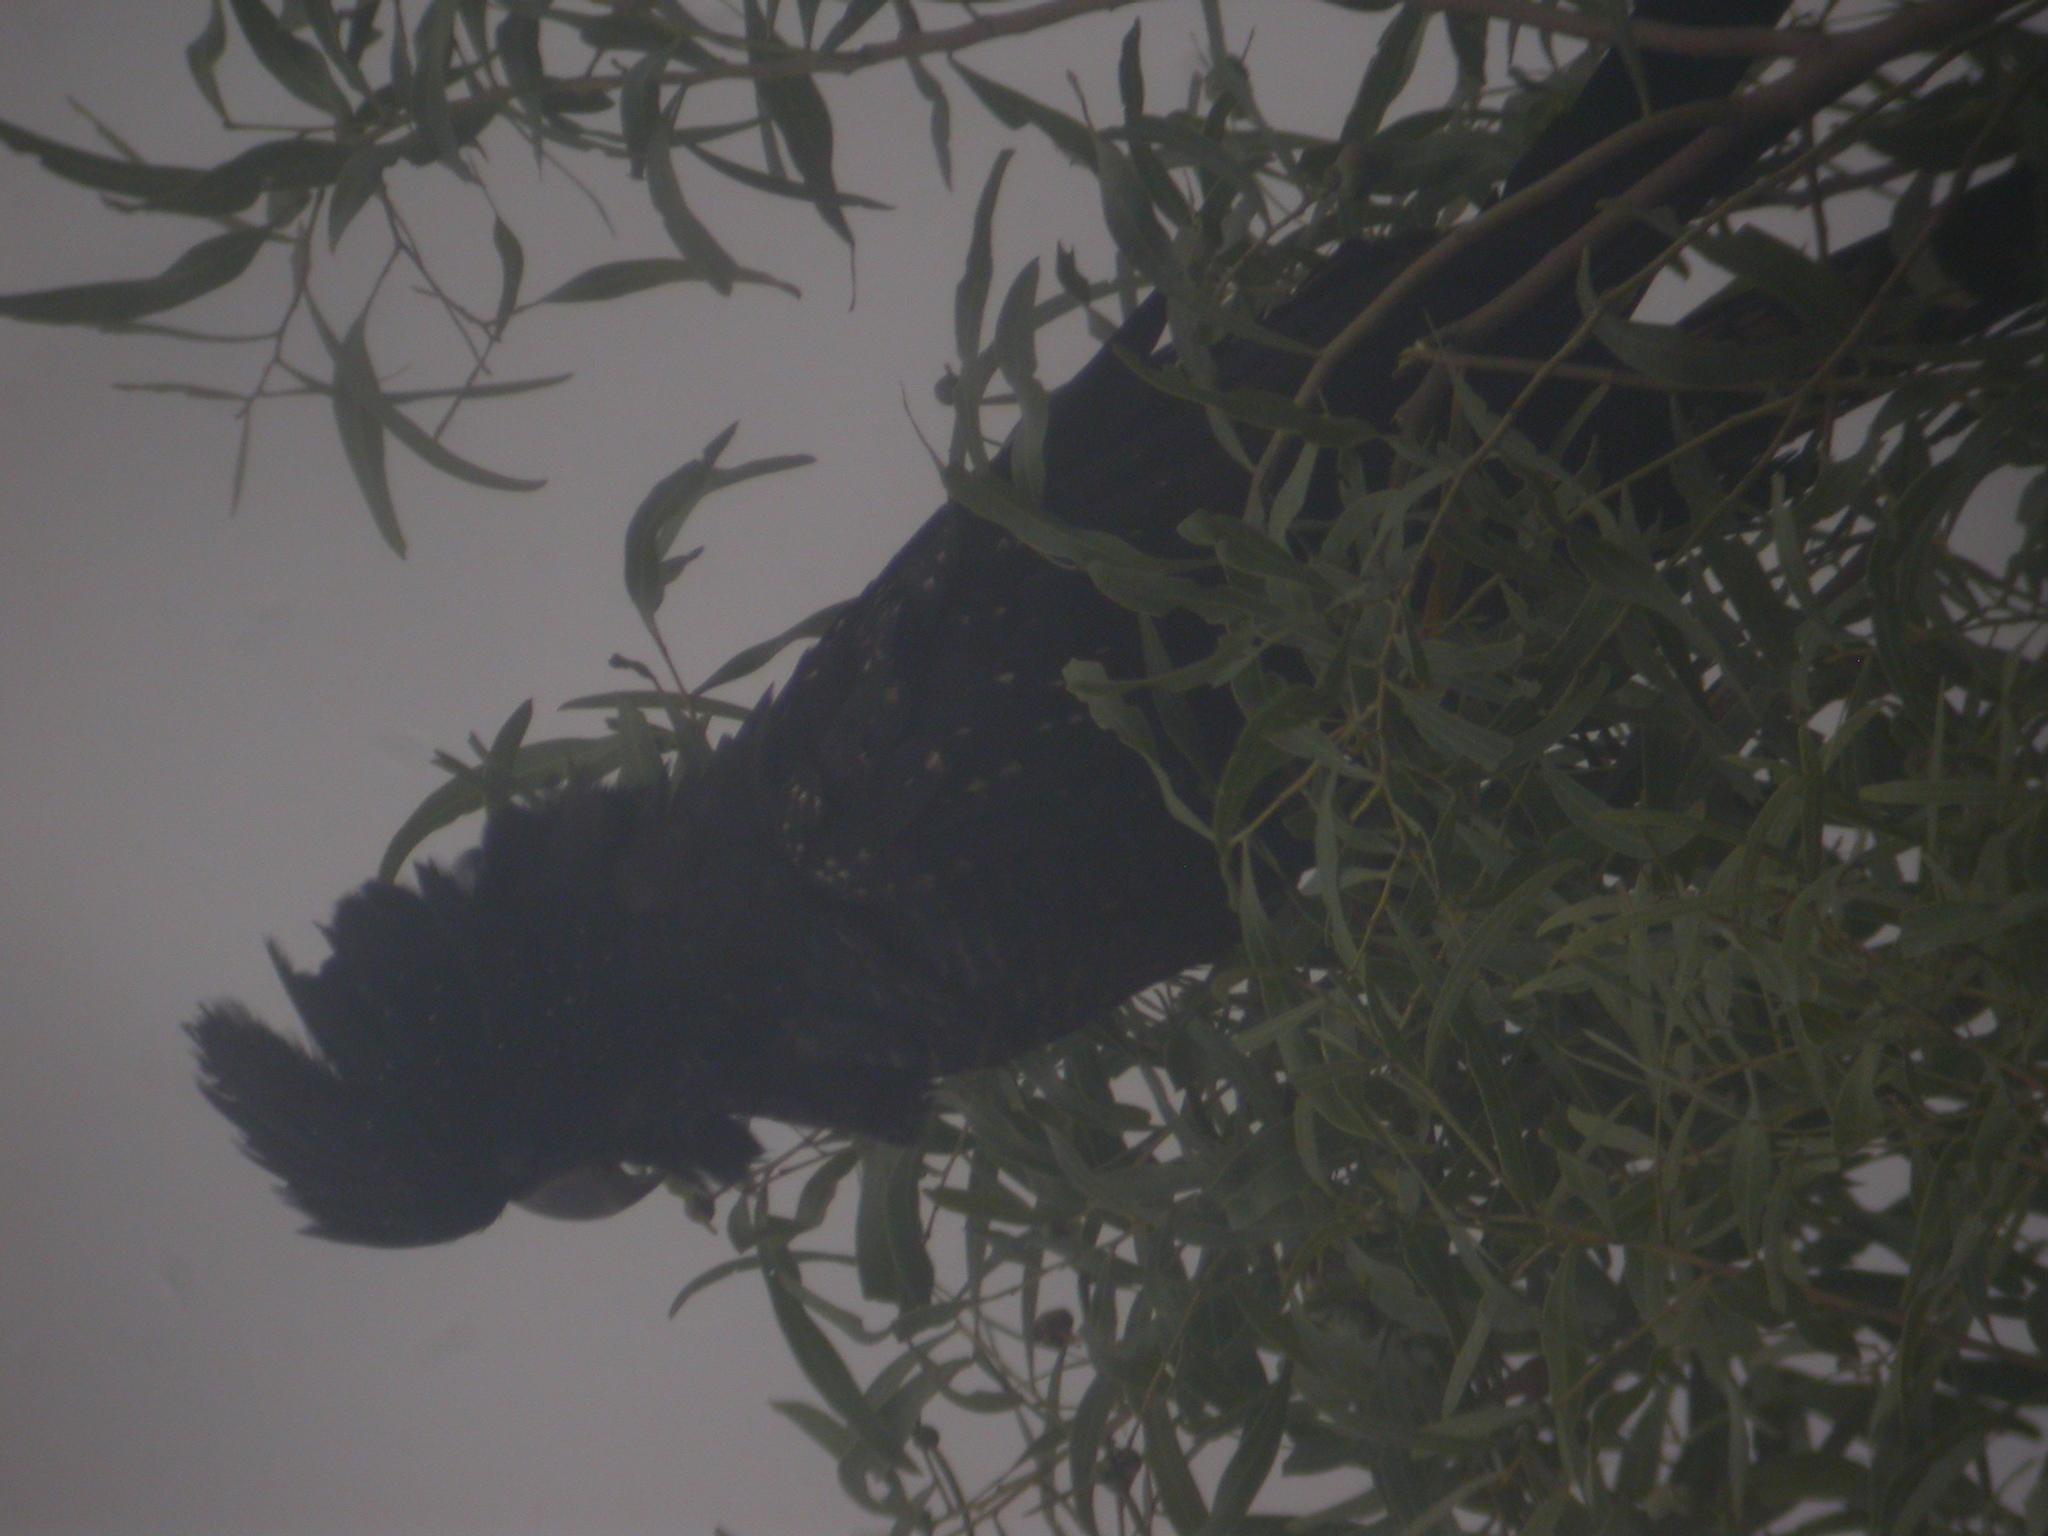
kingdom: Animalia
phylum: Chordata
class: Aves
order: Psittaciformes
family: Psittacidae
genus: Calyptorhynchus
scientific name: Calyptorhynchus banksii
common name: Red-tailed black cockatoo
